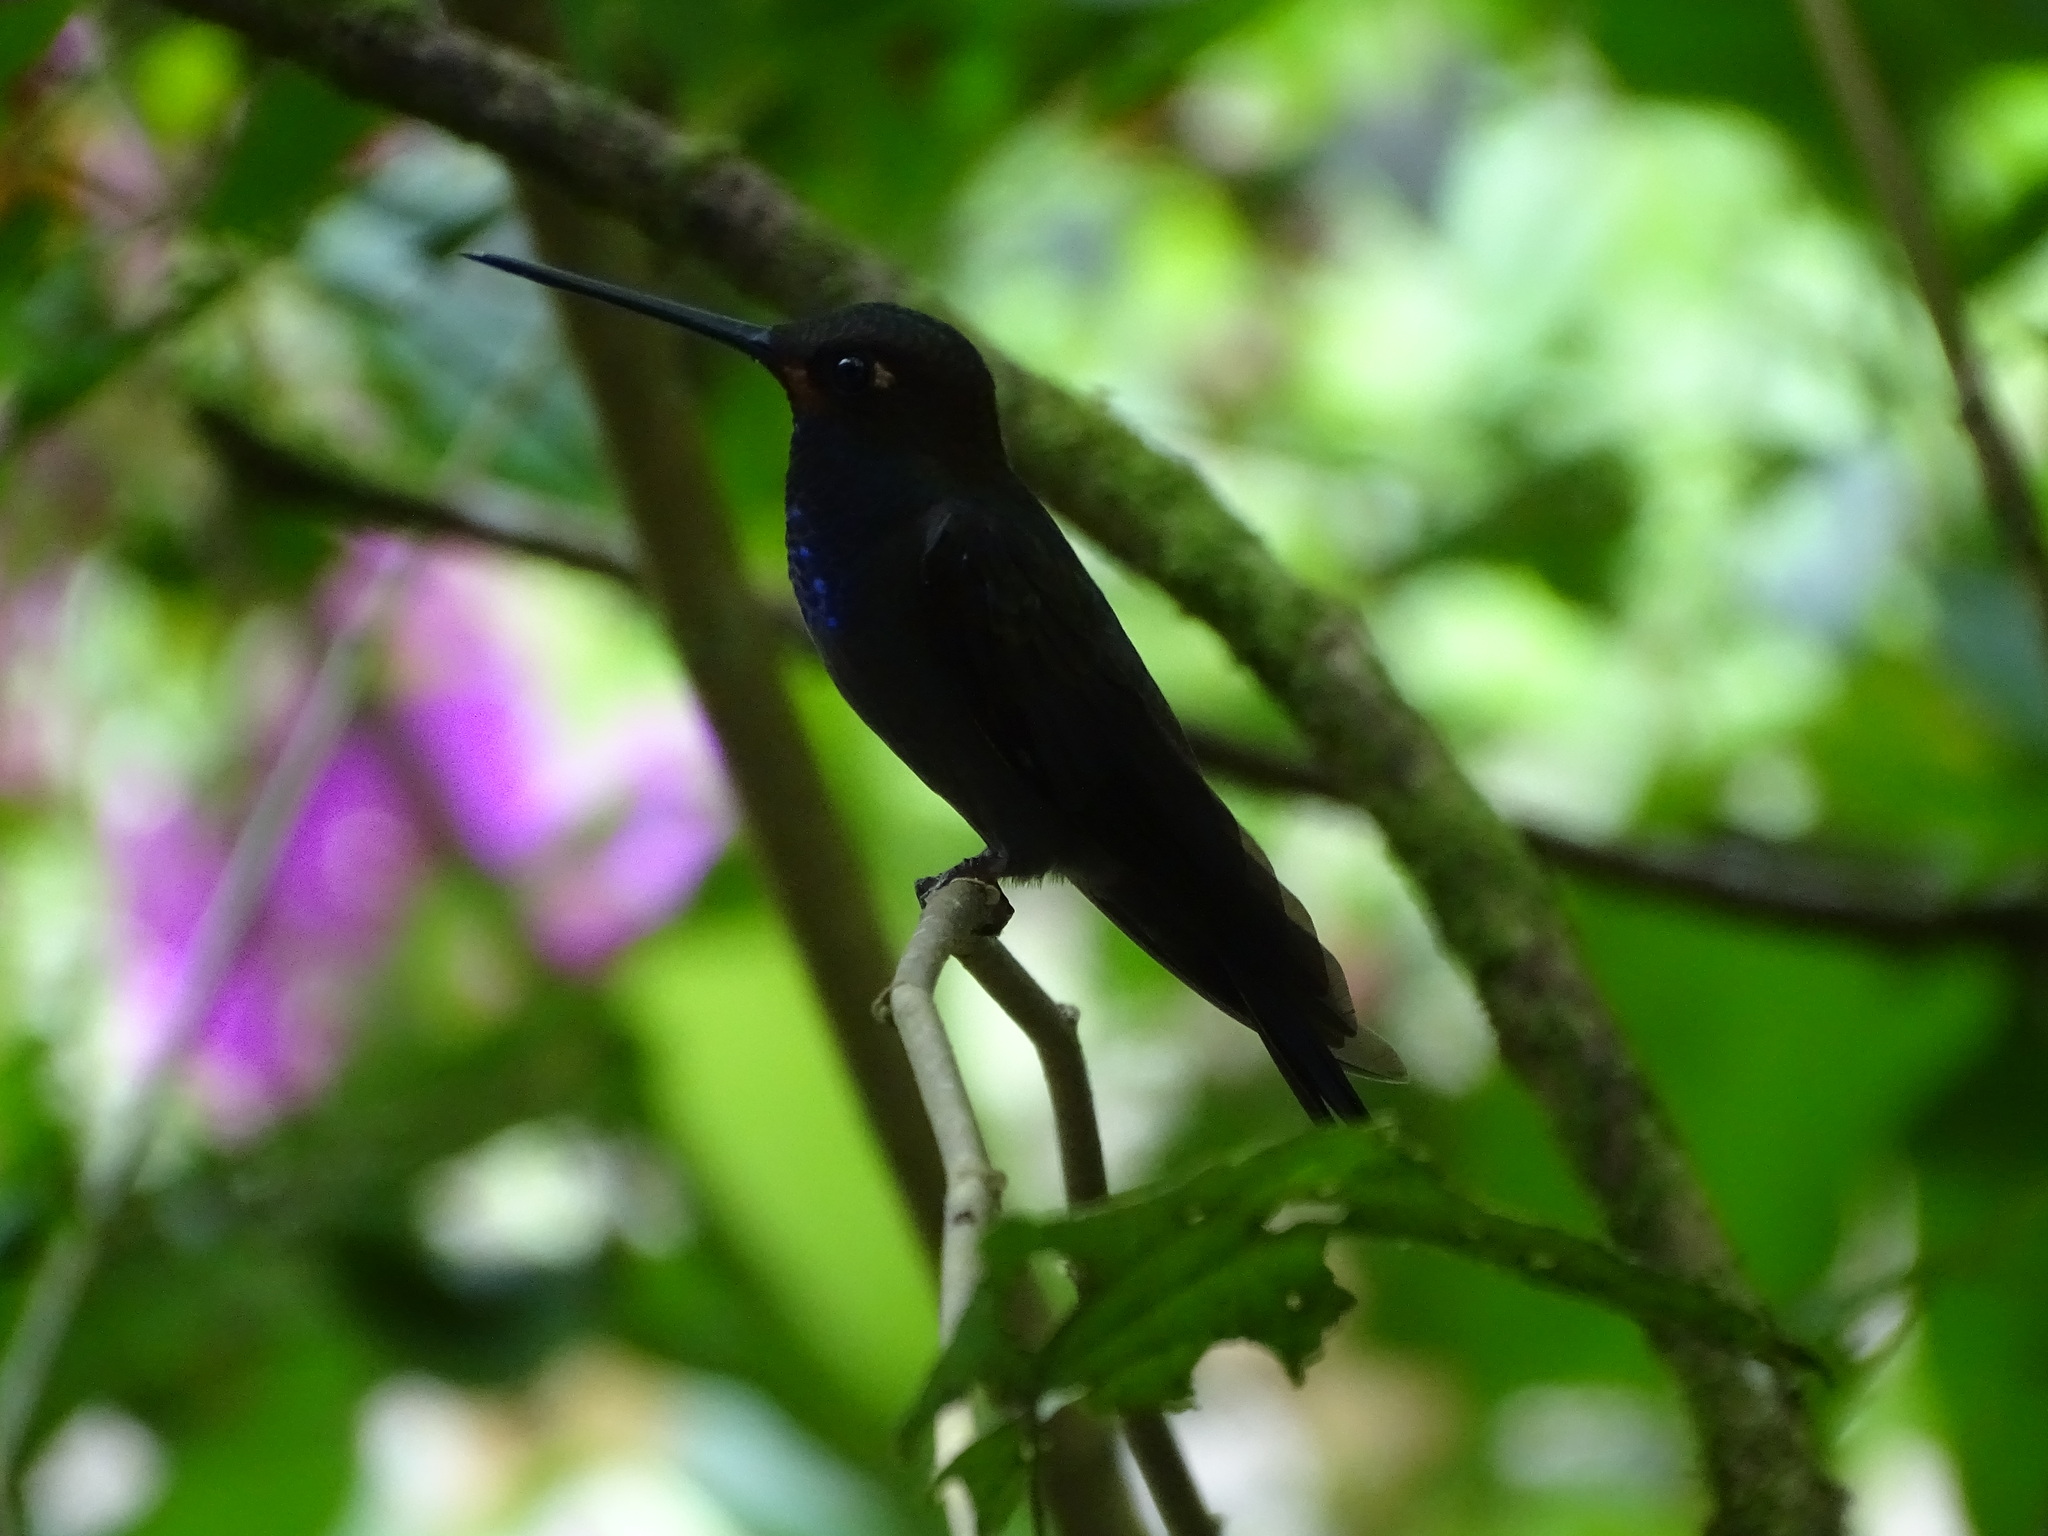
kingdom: Animalia
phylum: Chordata
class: Aves
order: Apodiformes
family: Trochilidae
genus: Urochroa
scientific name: Urochroa bougueri
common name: White-tailed hillstar
